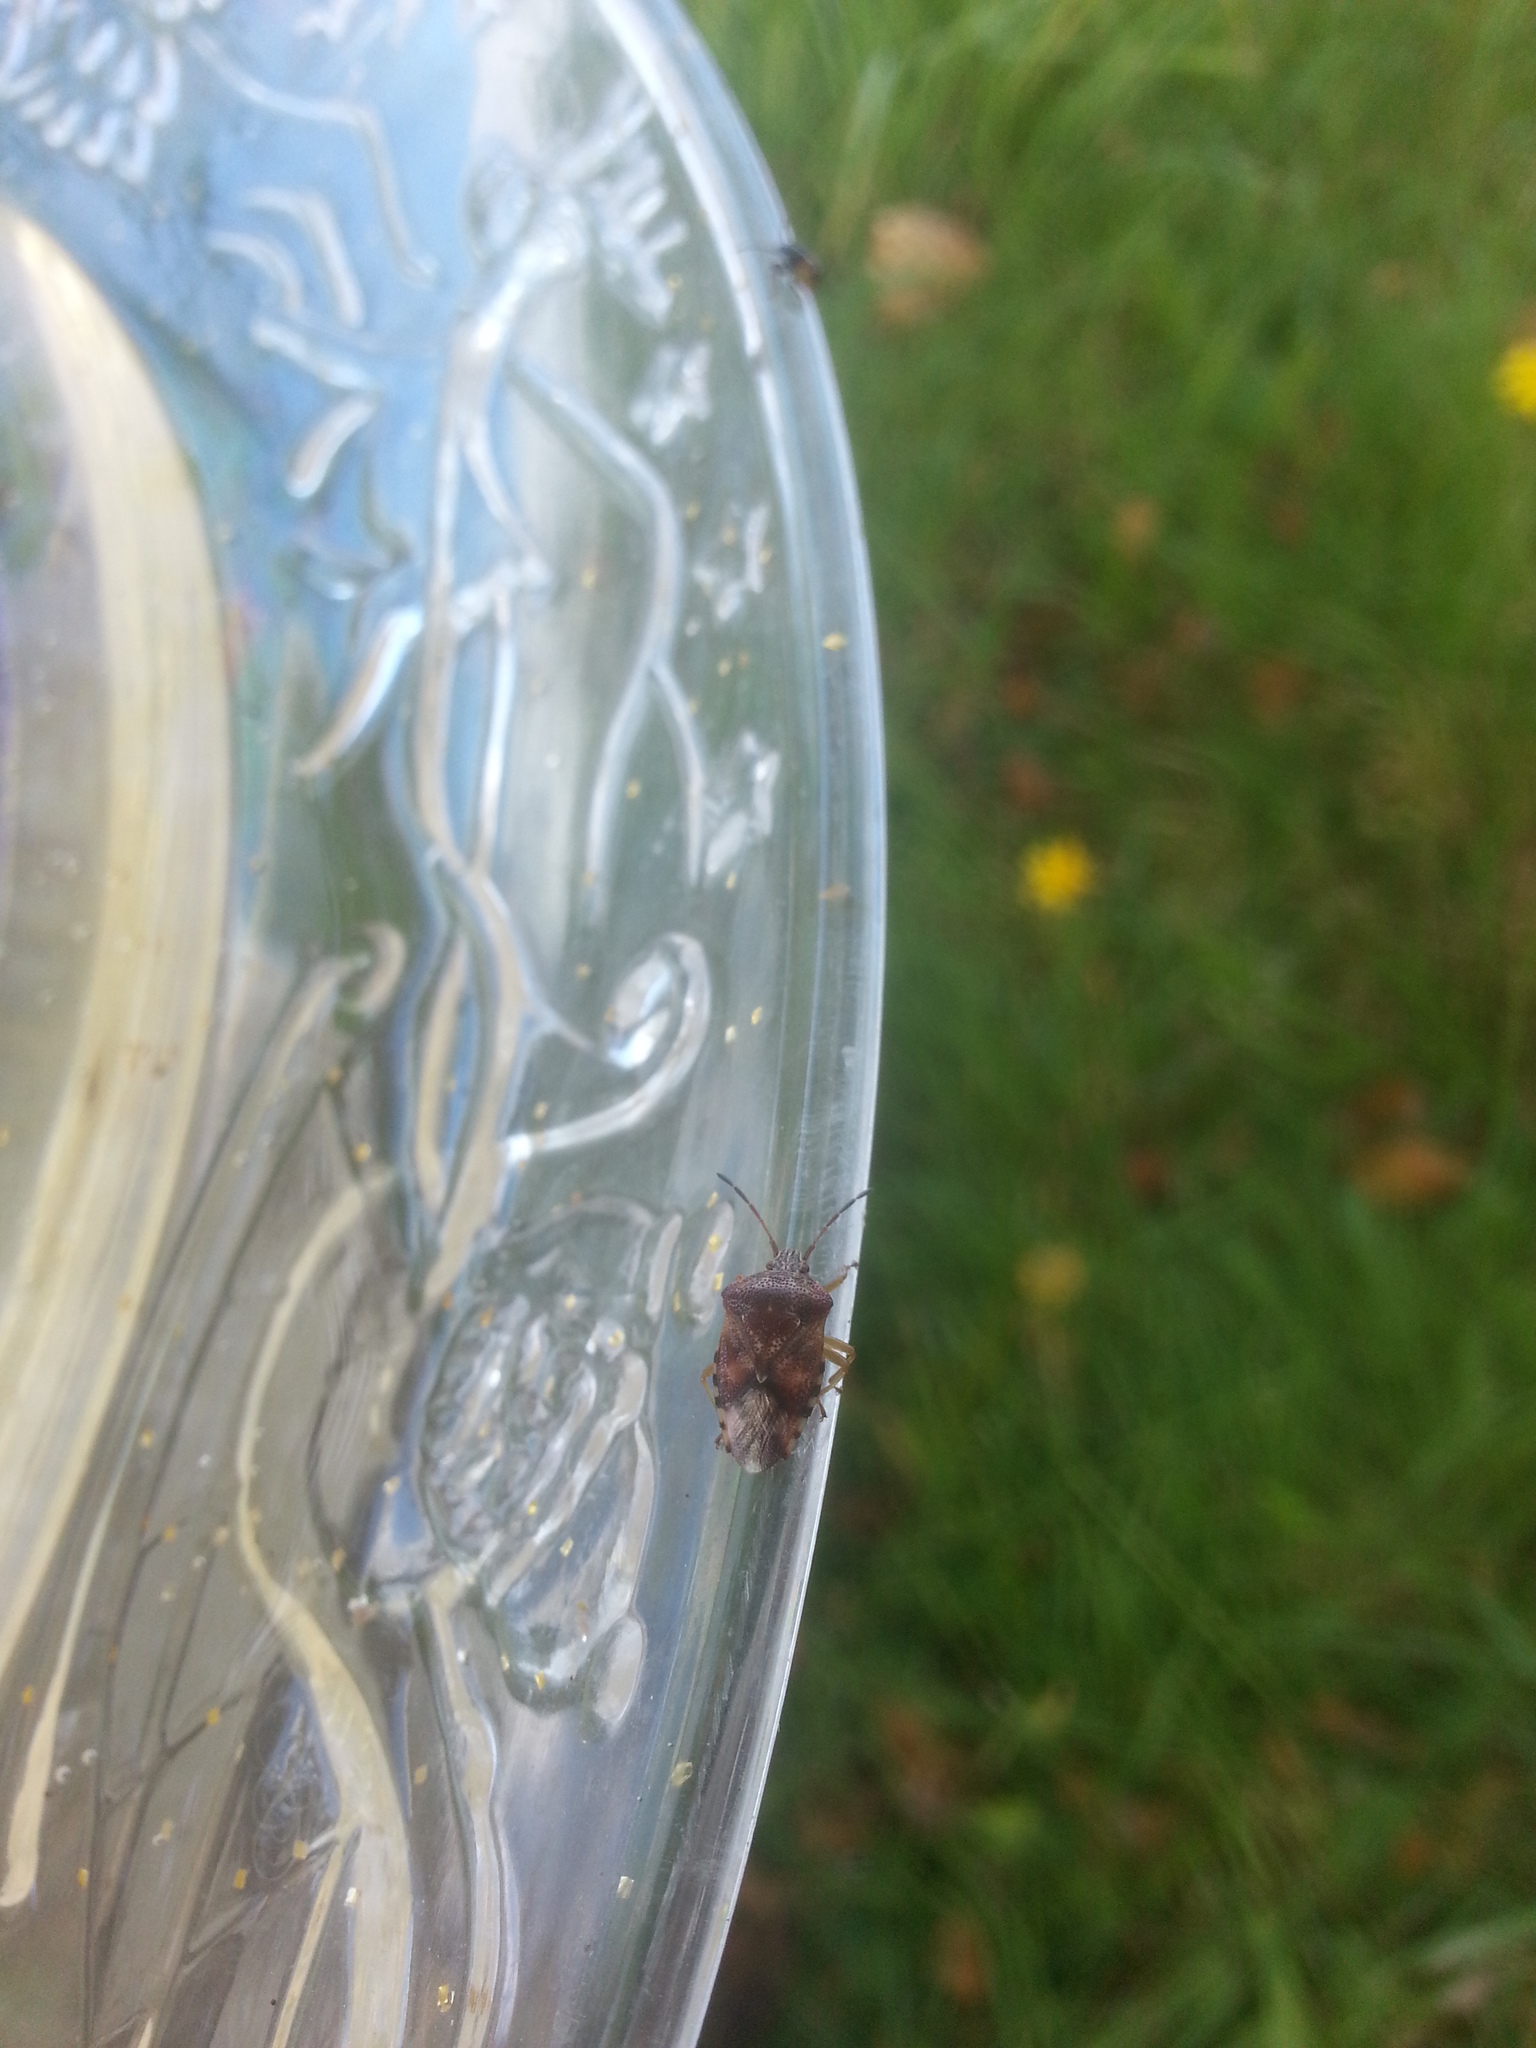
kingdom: Animalia
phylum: Arthropoda
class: Insecta
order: Hemiptera
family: Acanthosomatidae
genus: Elasmucha
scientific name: Elasmucha lateralis
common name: Shield bug
